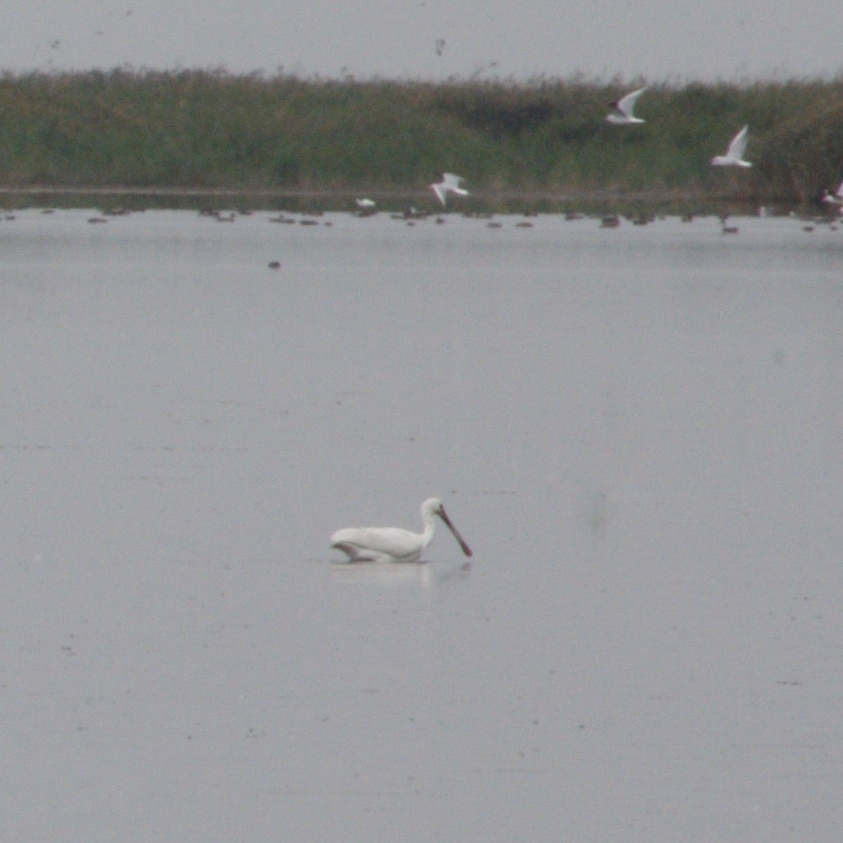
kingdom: Animalia
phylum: Chordata
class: Aves
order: Pelecaniformes
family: Threskiornithidae
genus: Platalea
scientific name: Platalea leucorodia
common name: Eurasian spoonbill
